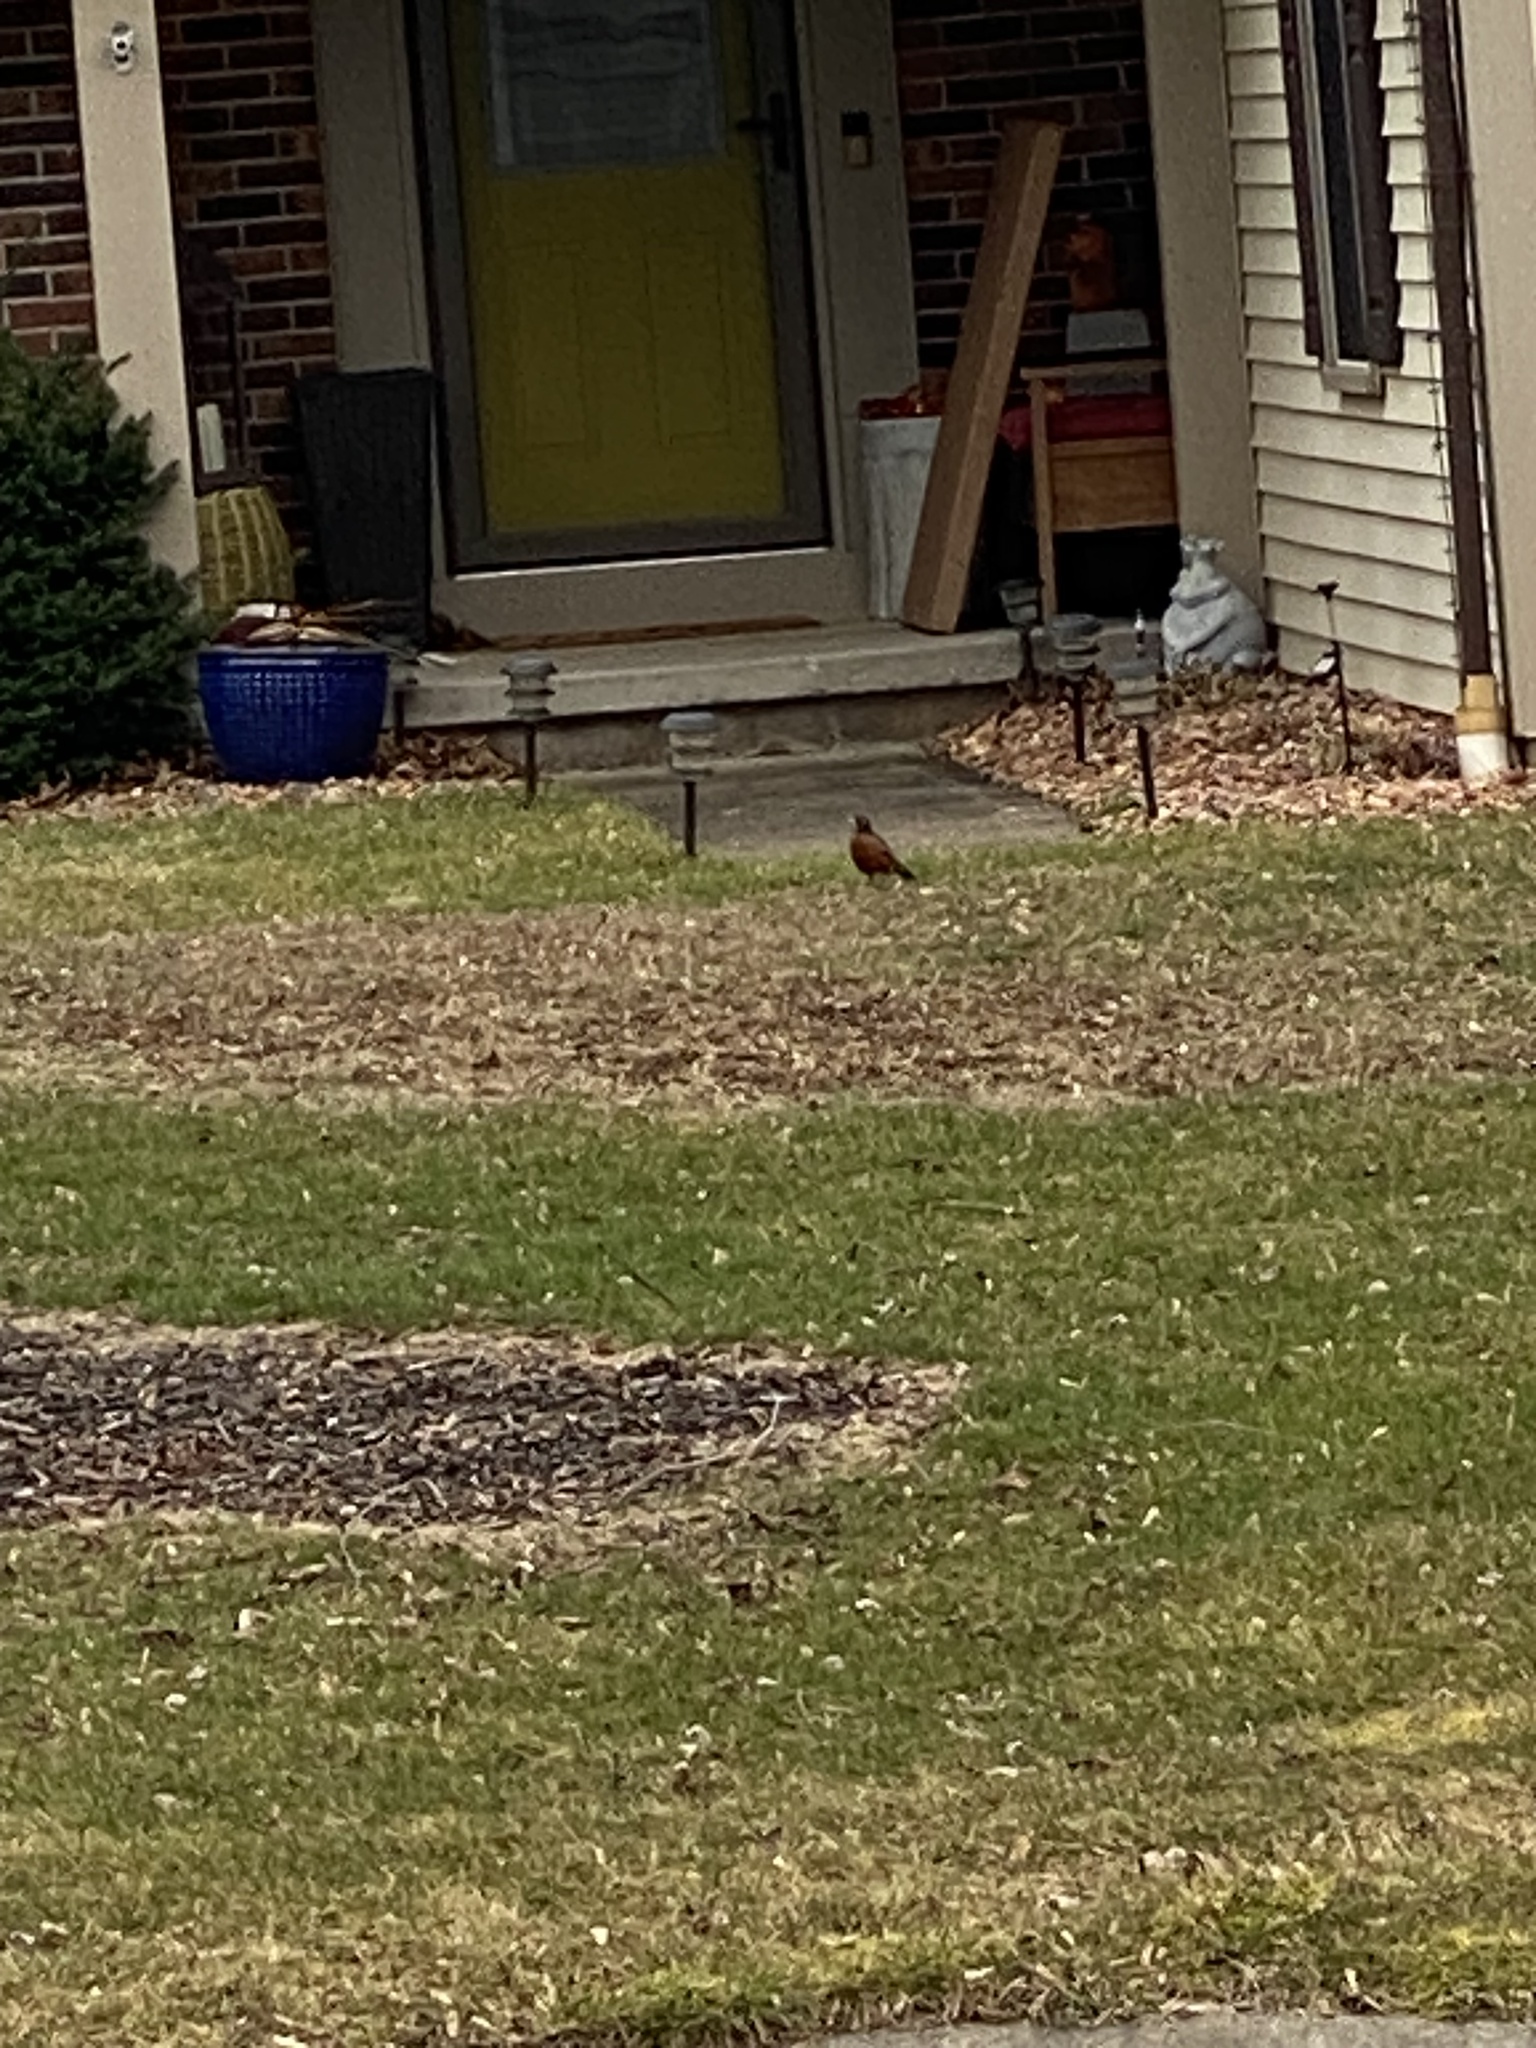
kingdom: Animalia
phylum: Chordata
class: Aves
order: Passeriformes
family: Turdidae
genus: Turdus
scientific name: Turdus migratorius
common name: American robin
